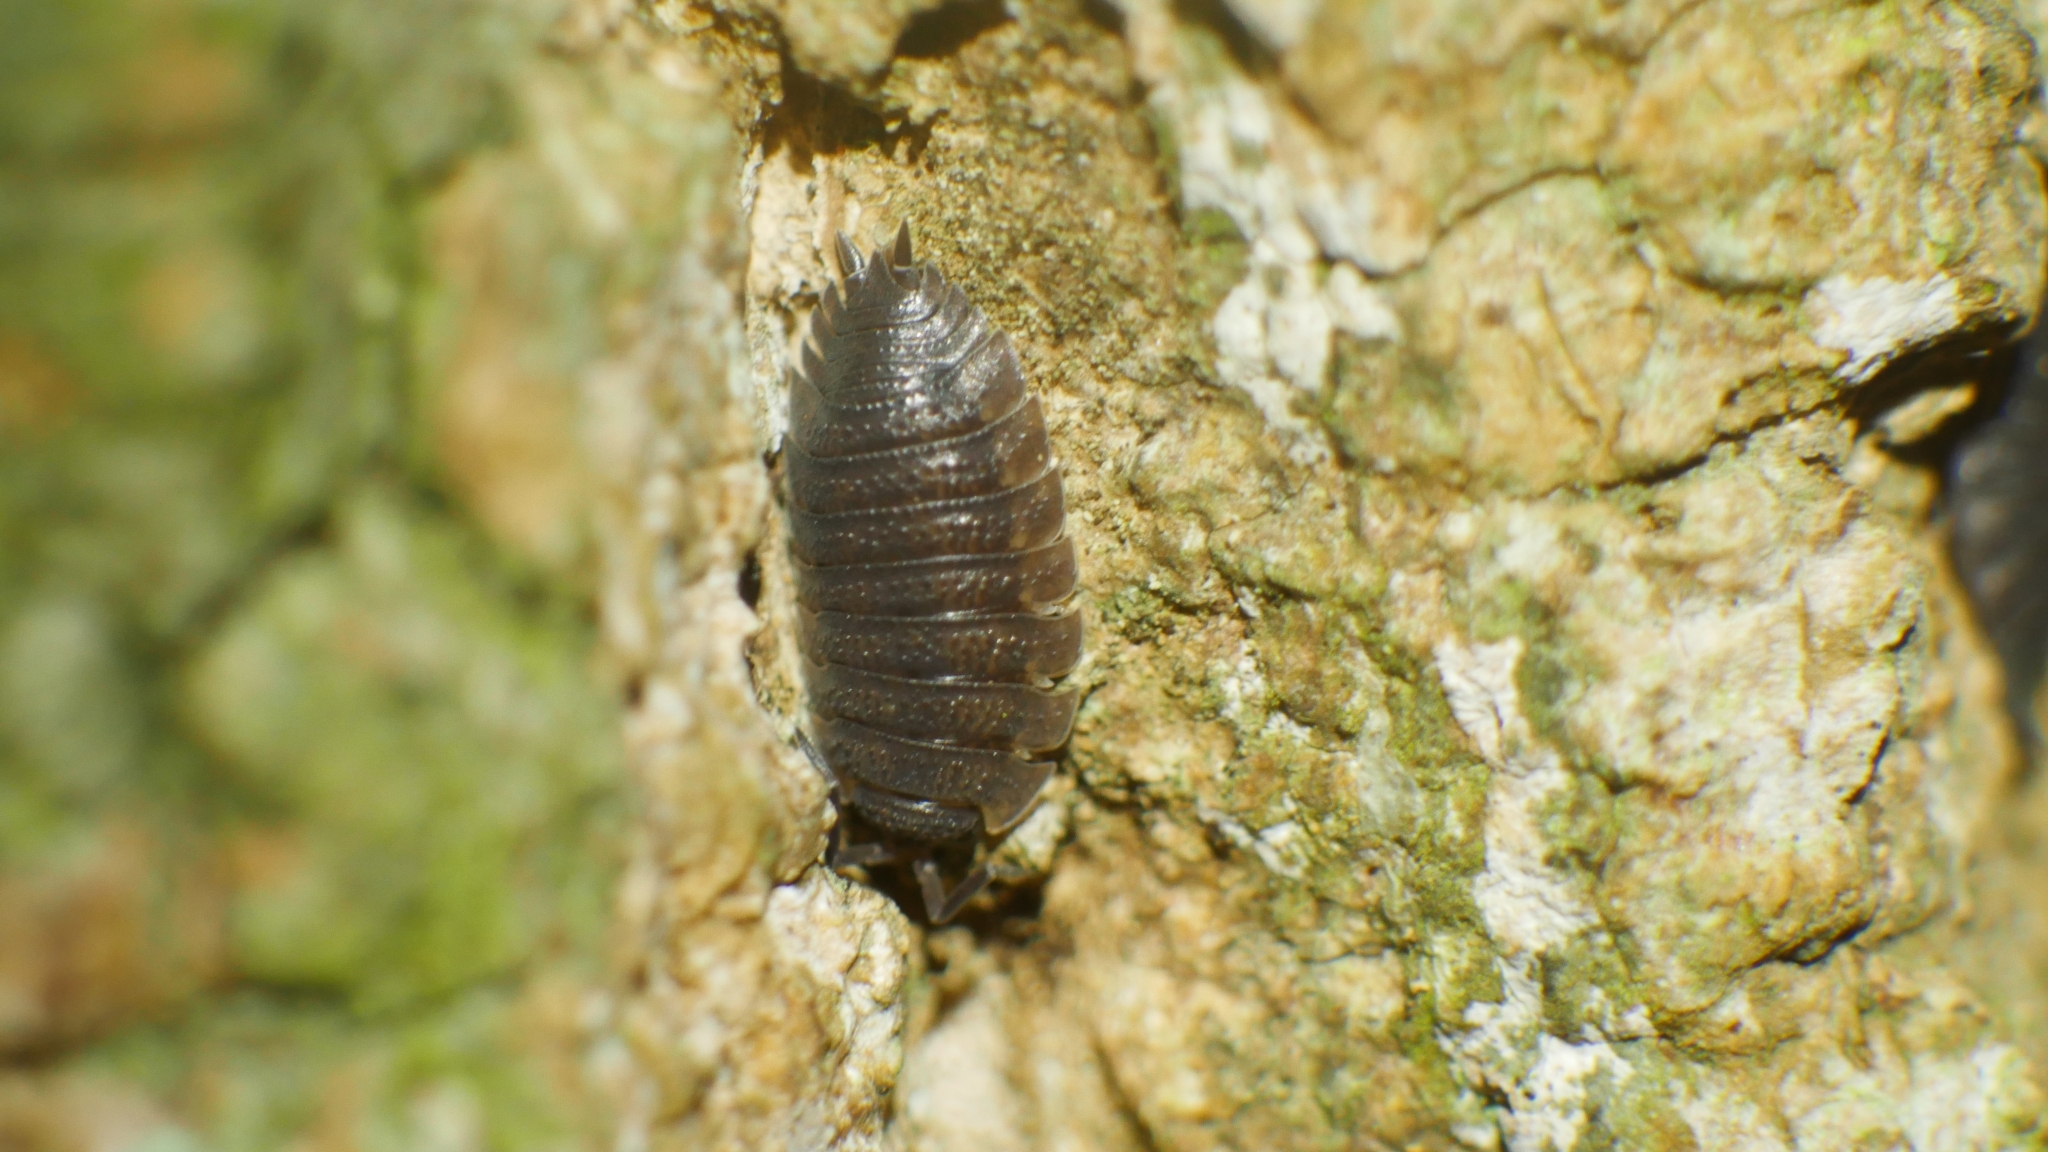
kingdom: Animalia
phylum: Arthropoda
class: Malacostraca
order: Isopoda
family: Porcellionidae
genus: Porcellio
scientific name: Porcellio scaber
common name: Common rough woodlouse
